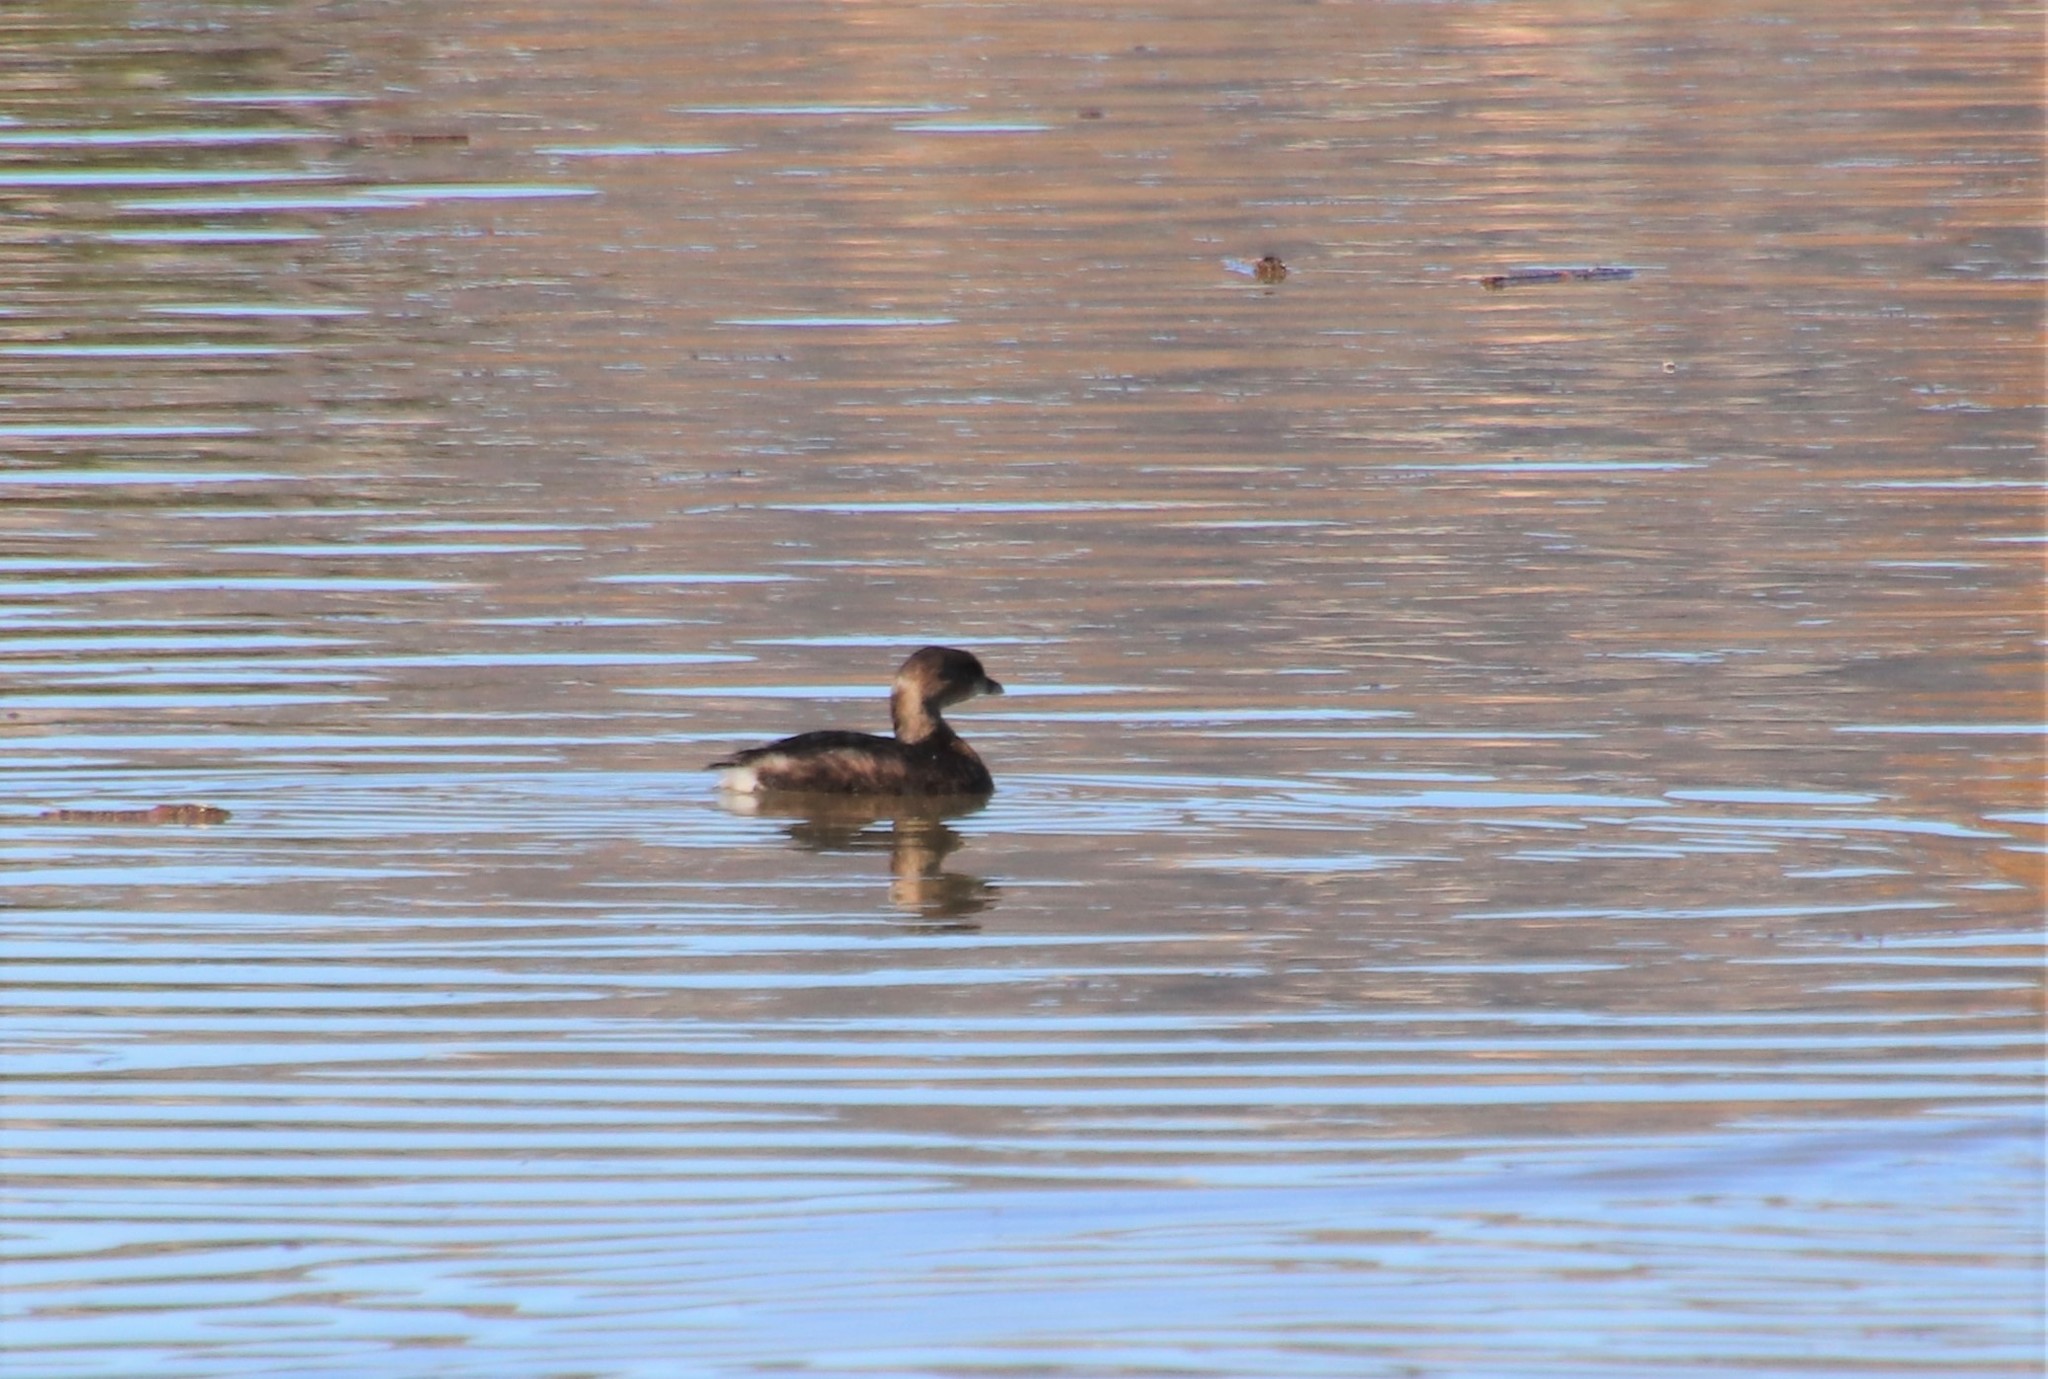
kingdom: Animalia
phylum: Chordata
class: Aves
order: Podicipediformes
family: Podicipedidae
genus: Podilymbus
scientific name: Podilymbus podiceps
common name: Pied-billed grebe
